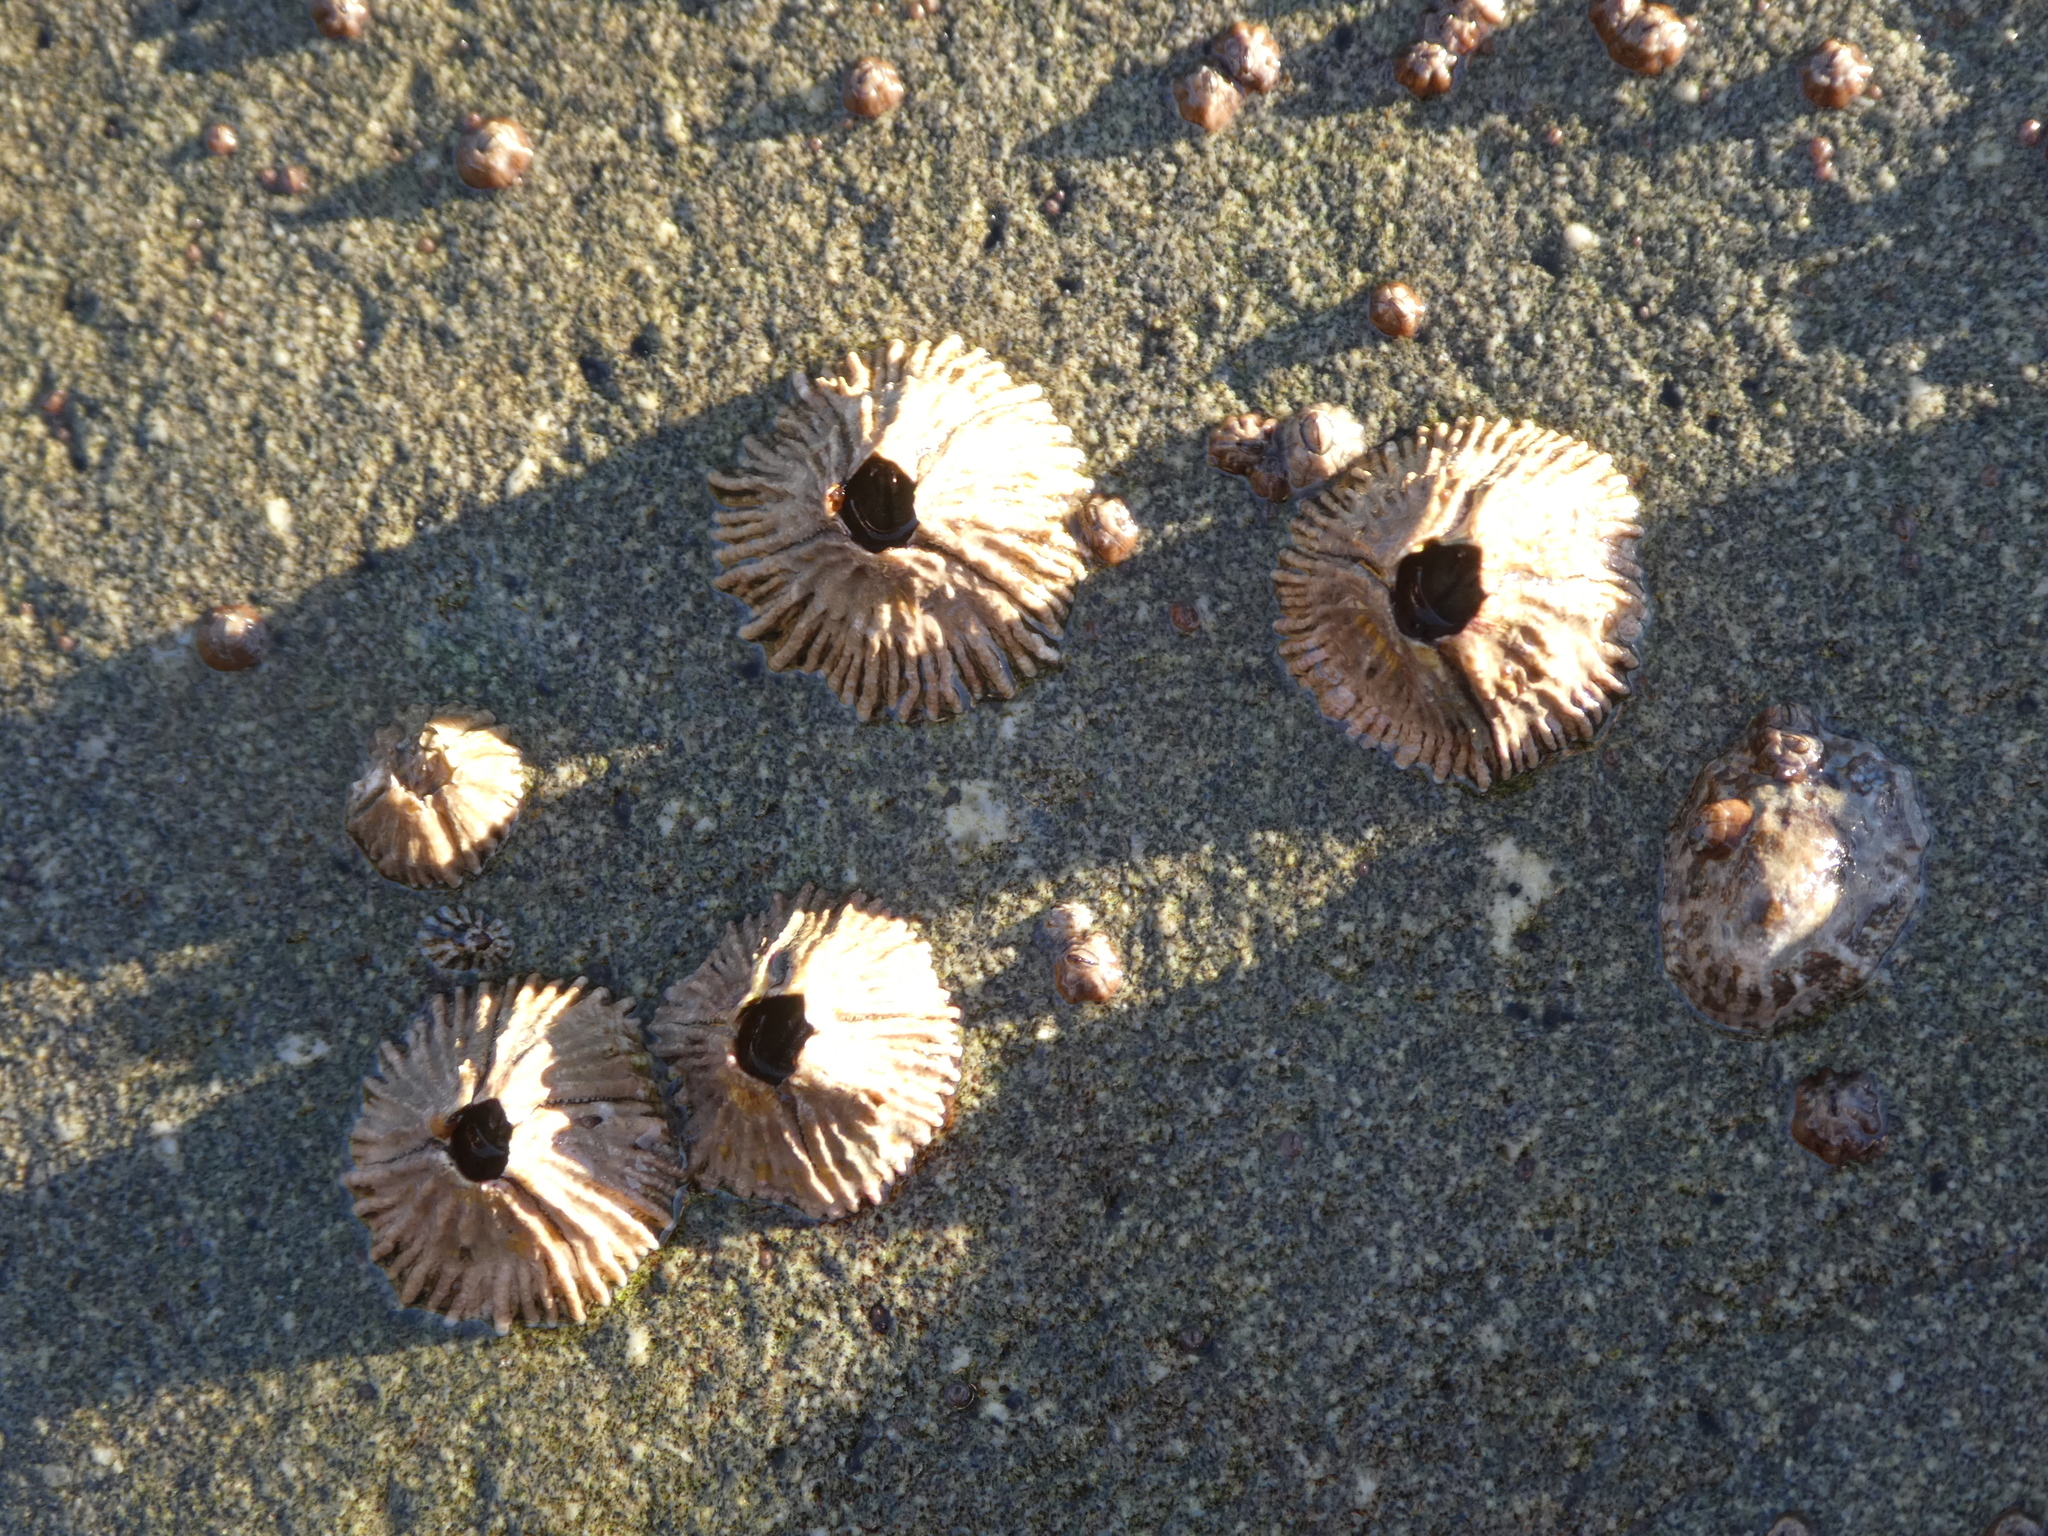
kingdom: Animalia
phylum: Arthropoda
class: Maxillopoda
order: Sessilia
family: Tetraclitidae
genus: Tetraclita
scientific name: Tetraclita rubescens
